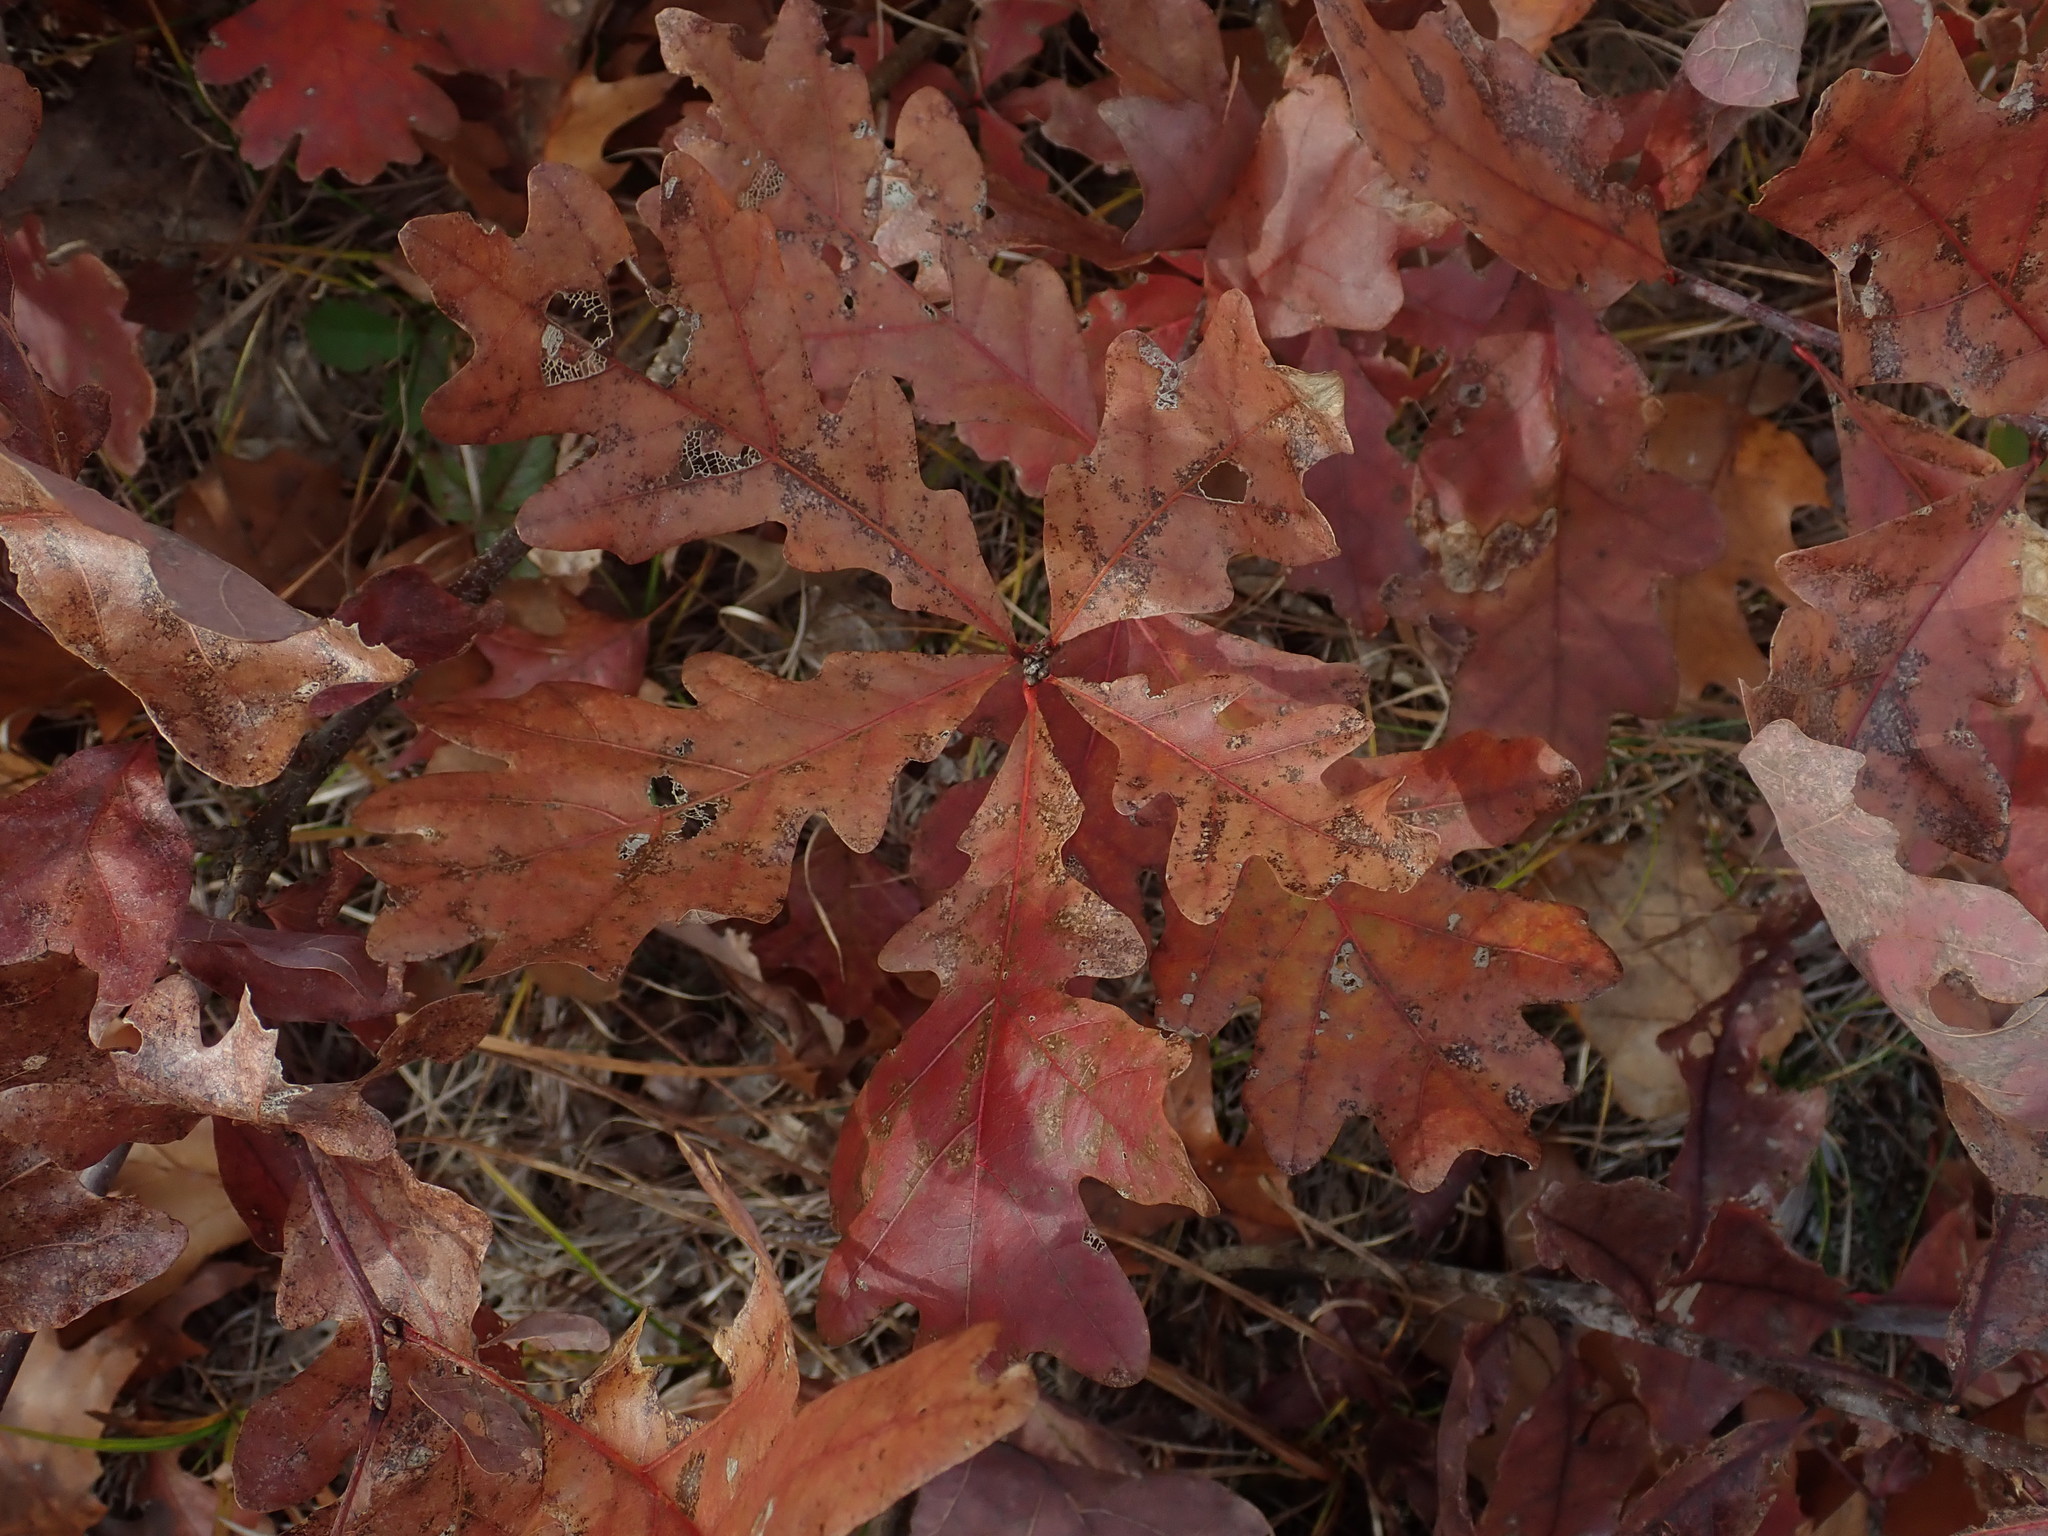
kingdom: Plantae
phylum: Tracheophyta
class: Magnoliopsida
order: Fagales
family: Fagaceae
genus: Quercus
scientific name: Quercus alba
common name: White oak
